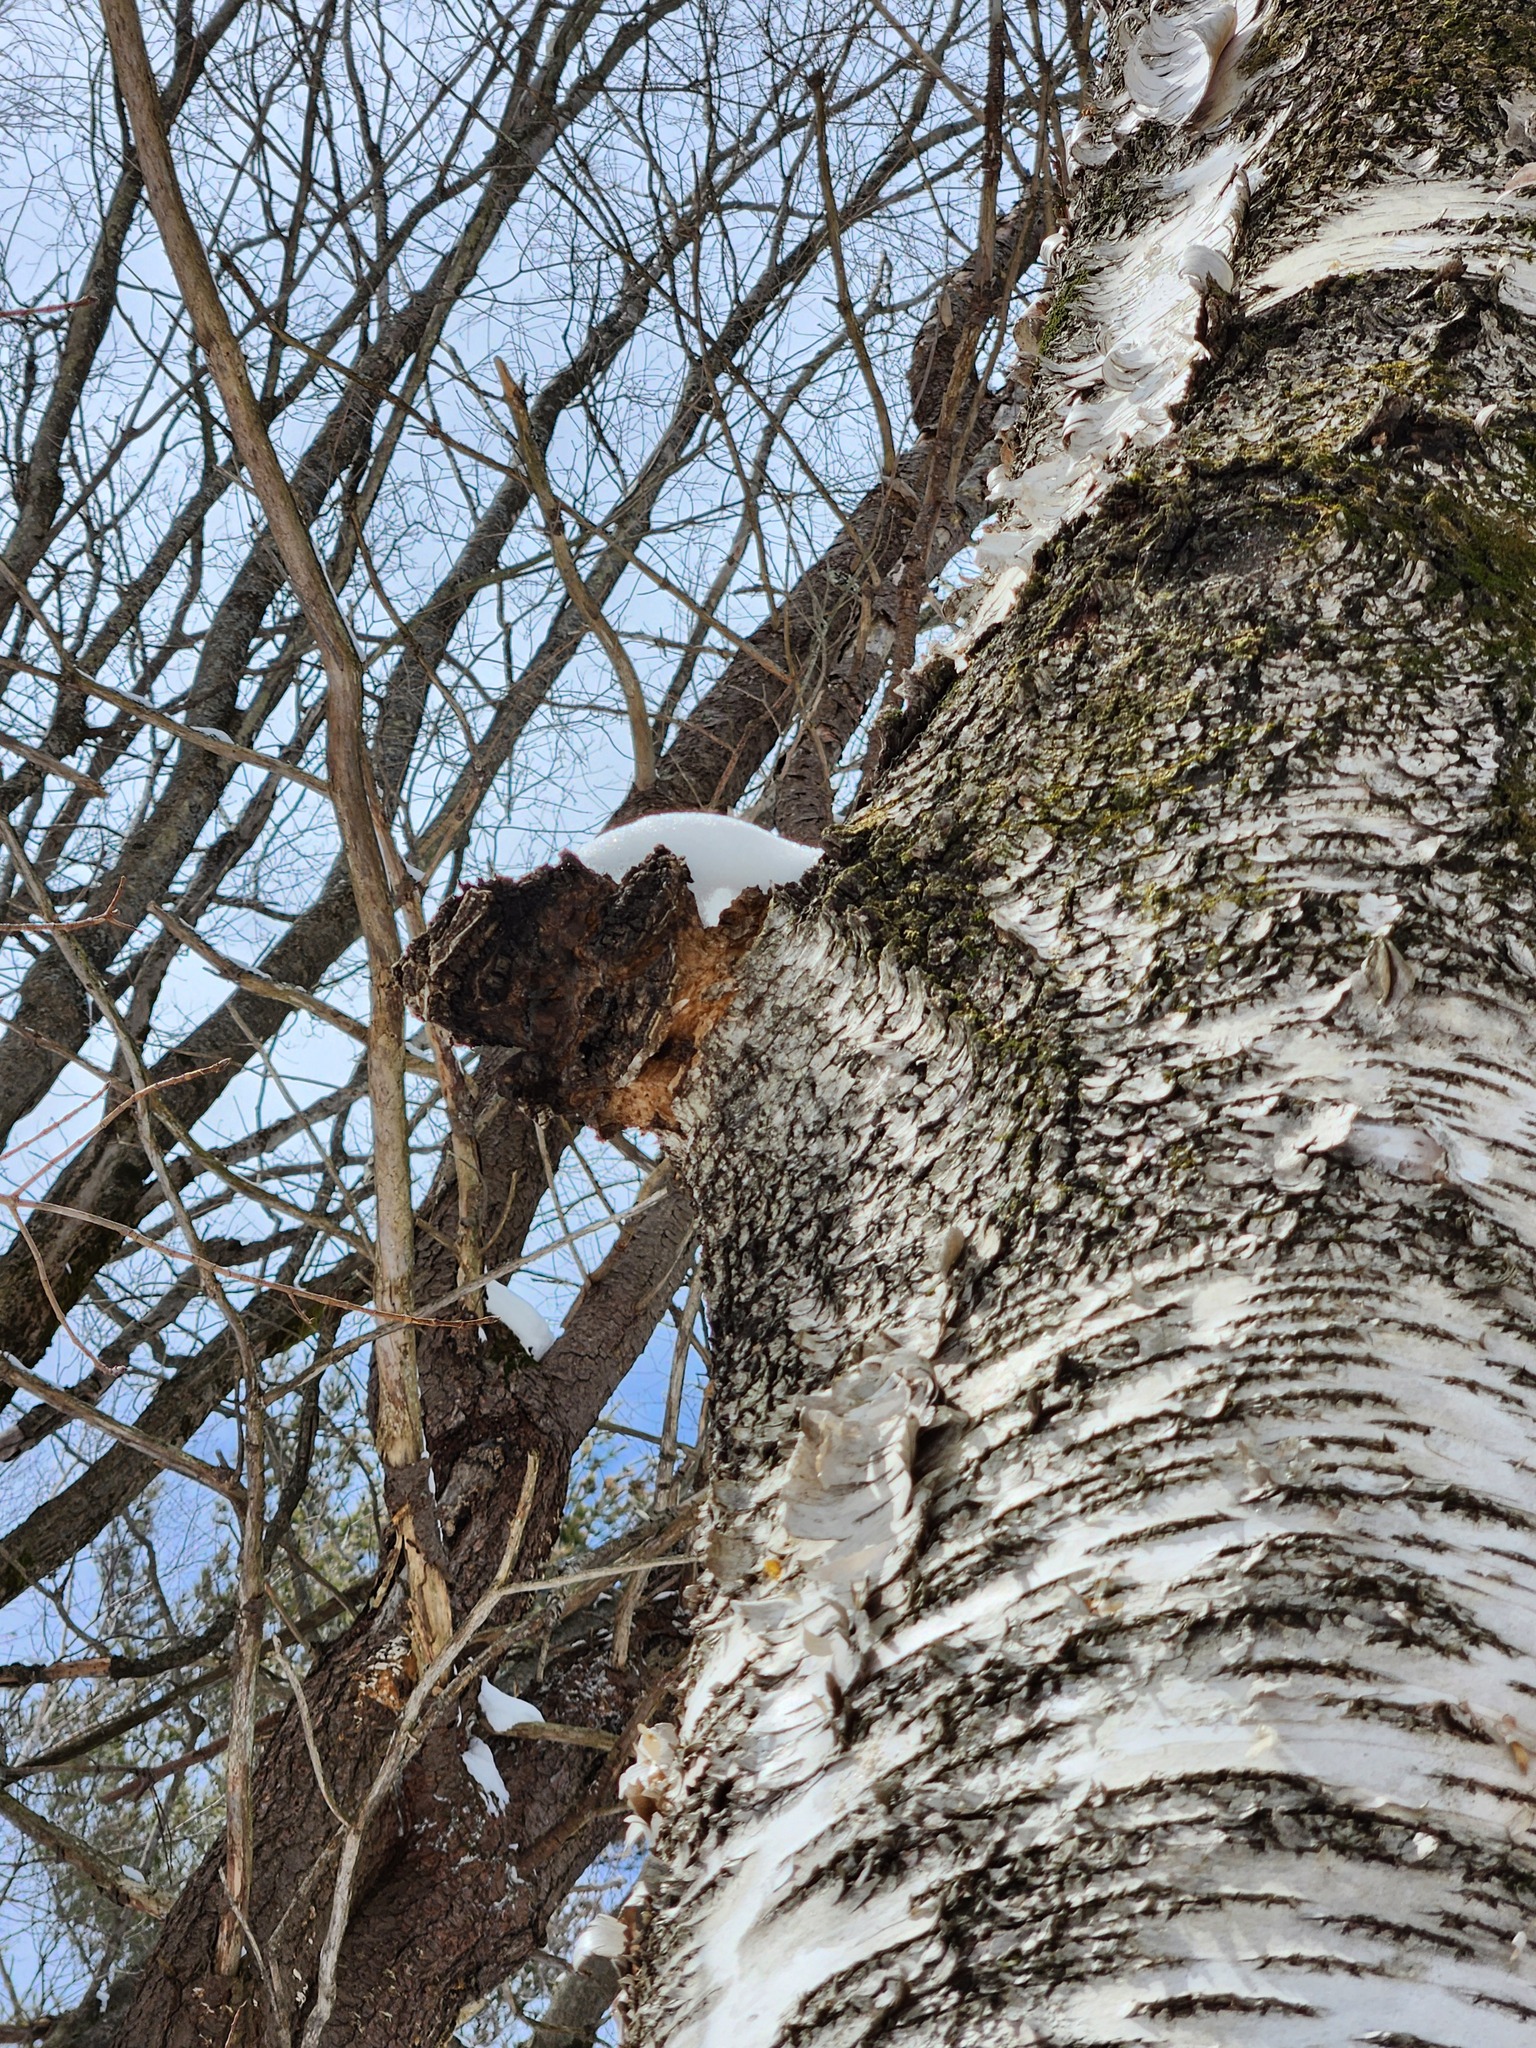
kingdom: Fungi
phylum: Basidiomycota
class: Agaricomycetes
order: Hymenochaetales
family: Hymenochaetaceae
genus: Inonotus
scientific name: Inonotus obliquus
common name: Chaga
